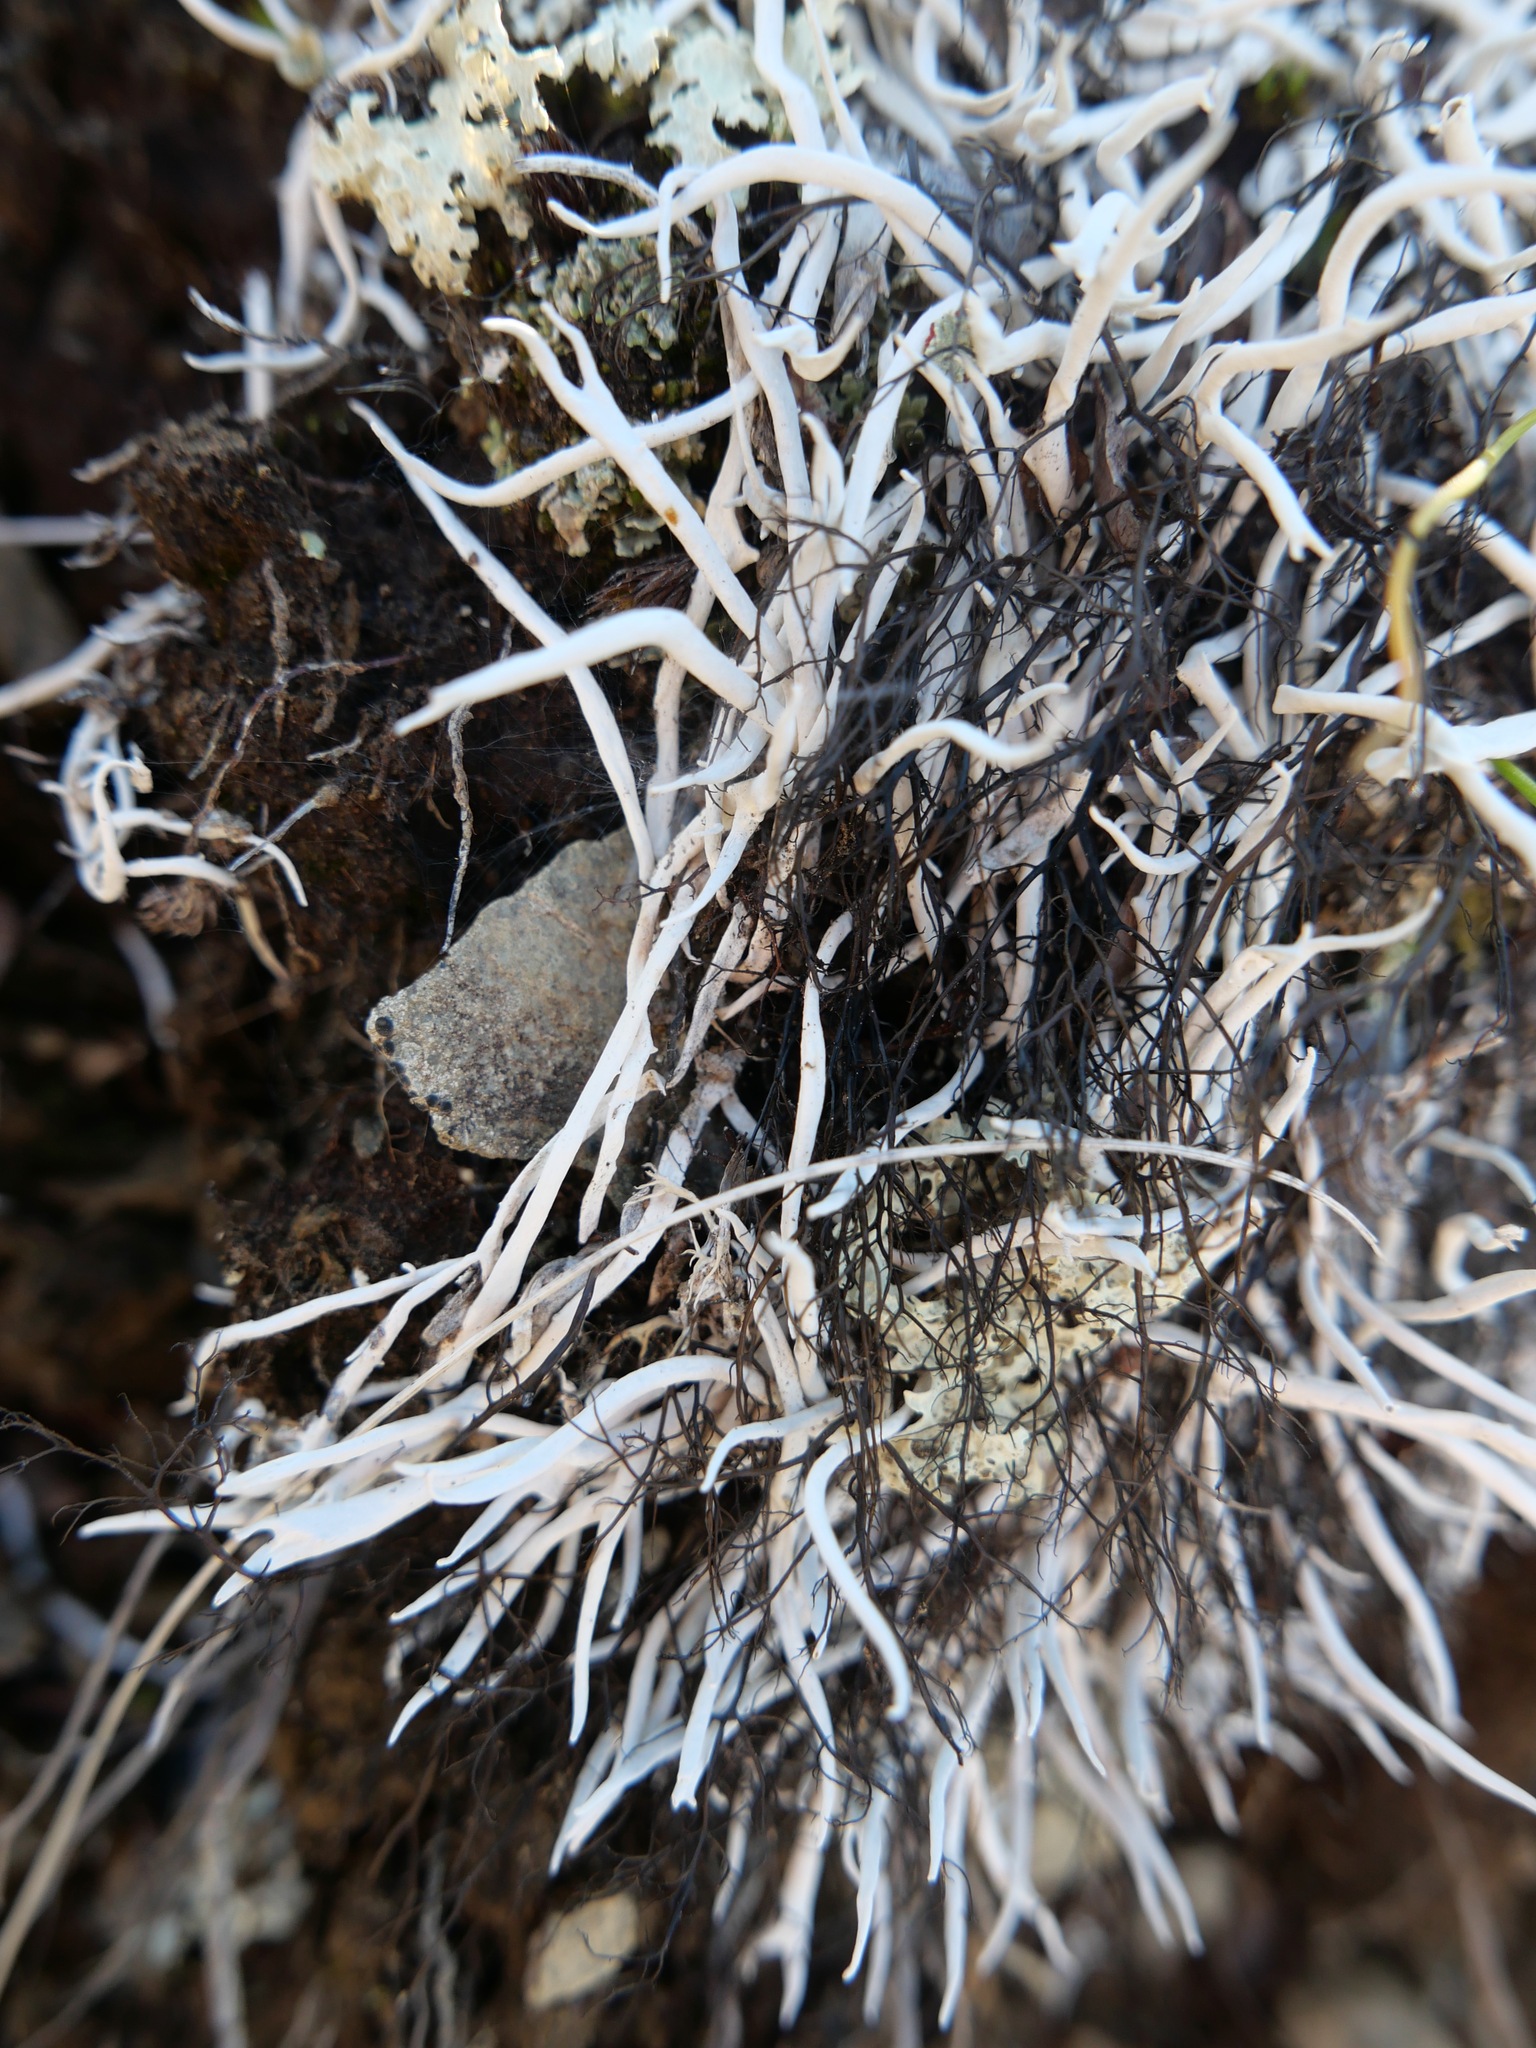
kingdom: Fungi
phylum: Ascomycota
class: Lecanoromycetes
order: Pertusariales
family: Icmadophilaceae
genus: Thamnolia
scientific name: Thamnolia vermicularis
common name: Whiteworm lichen
